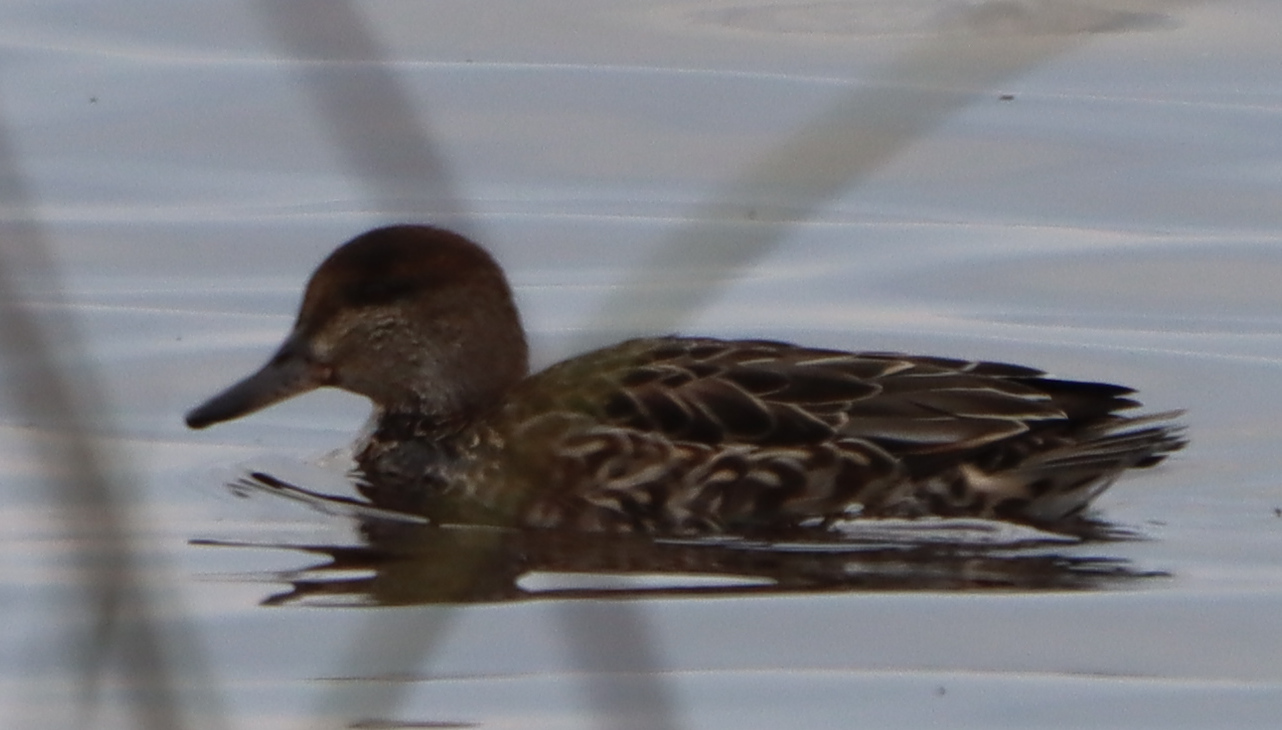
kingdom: Animalia
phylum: Chordata
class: Aves
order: Anseriformes
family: Anatidae
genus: Anas
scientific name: Anas crecca
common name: Eurasian teal
